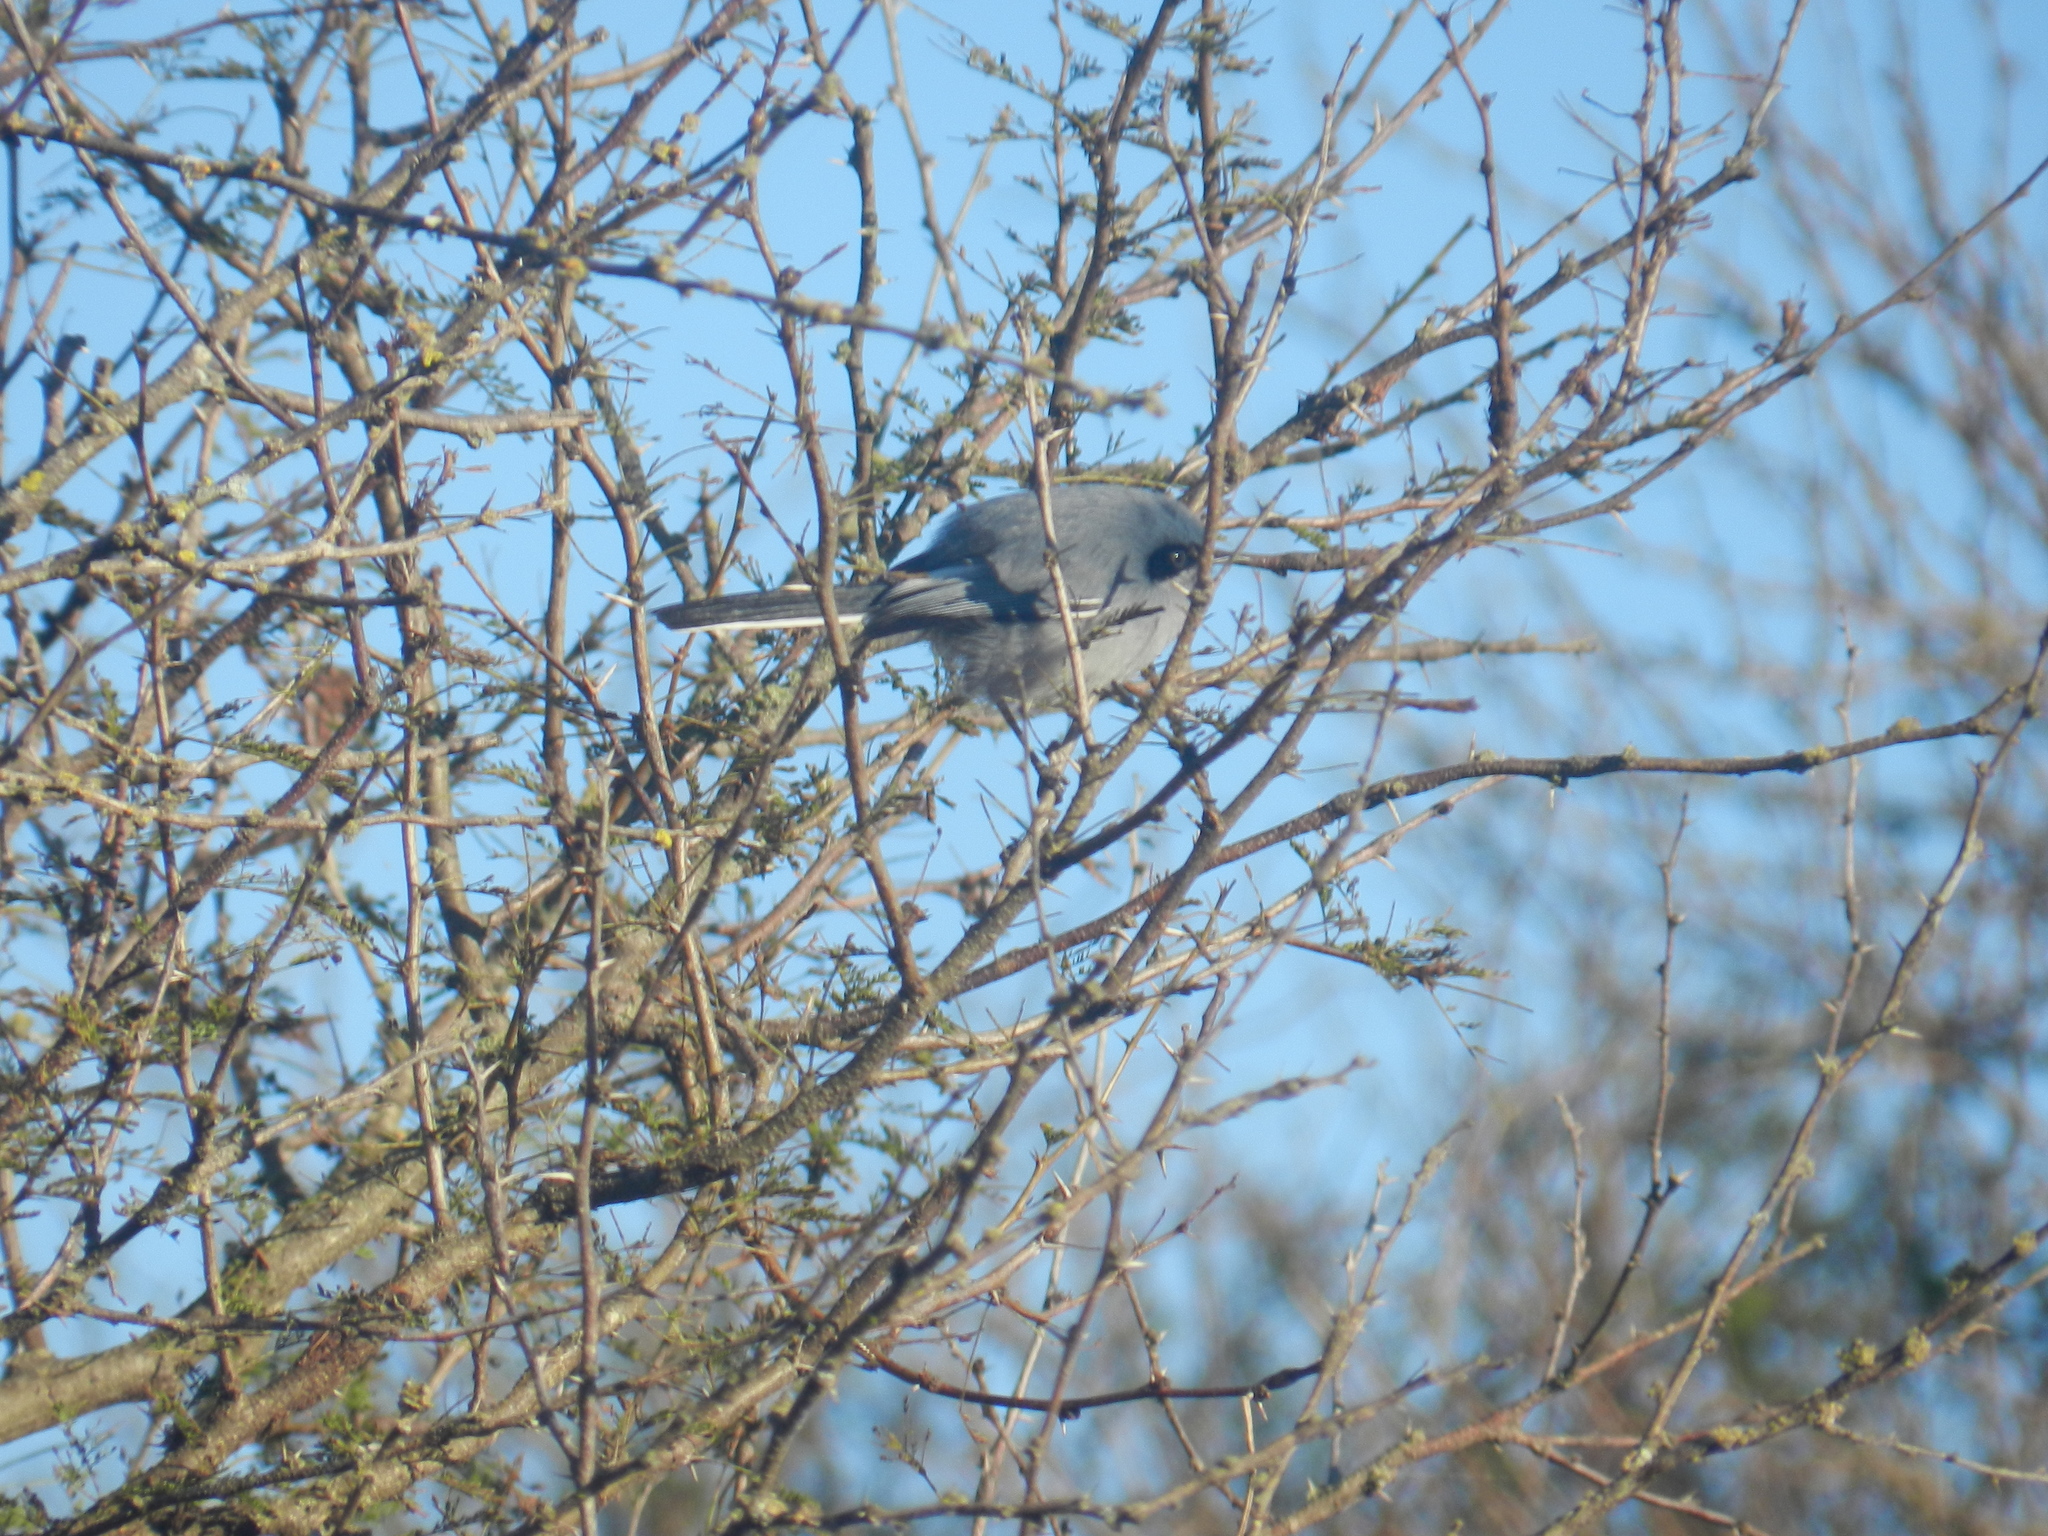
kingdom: Animalia
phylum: Chordata
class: Aves
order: Passeriformes
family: Polioptilidae
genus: Polioptila
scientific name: Polioptila dumicola
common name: Masked gnatcatcher
